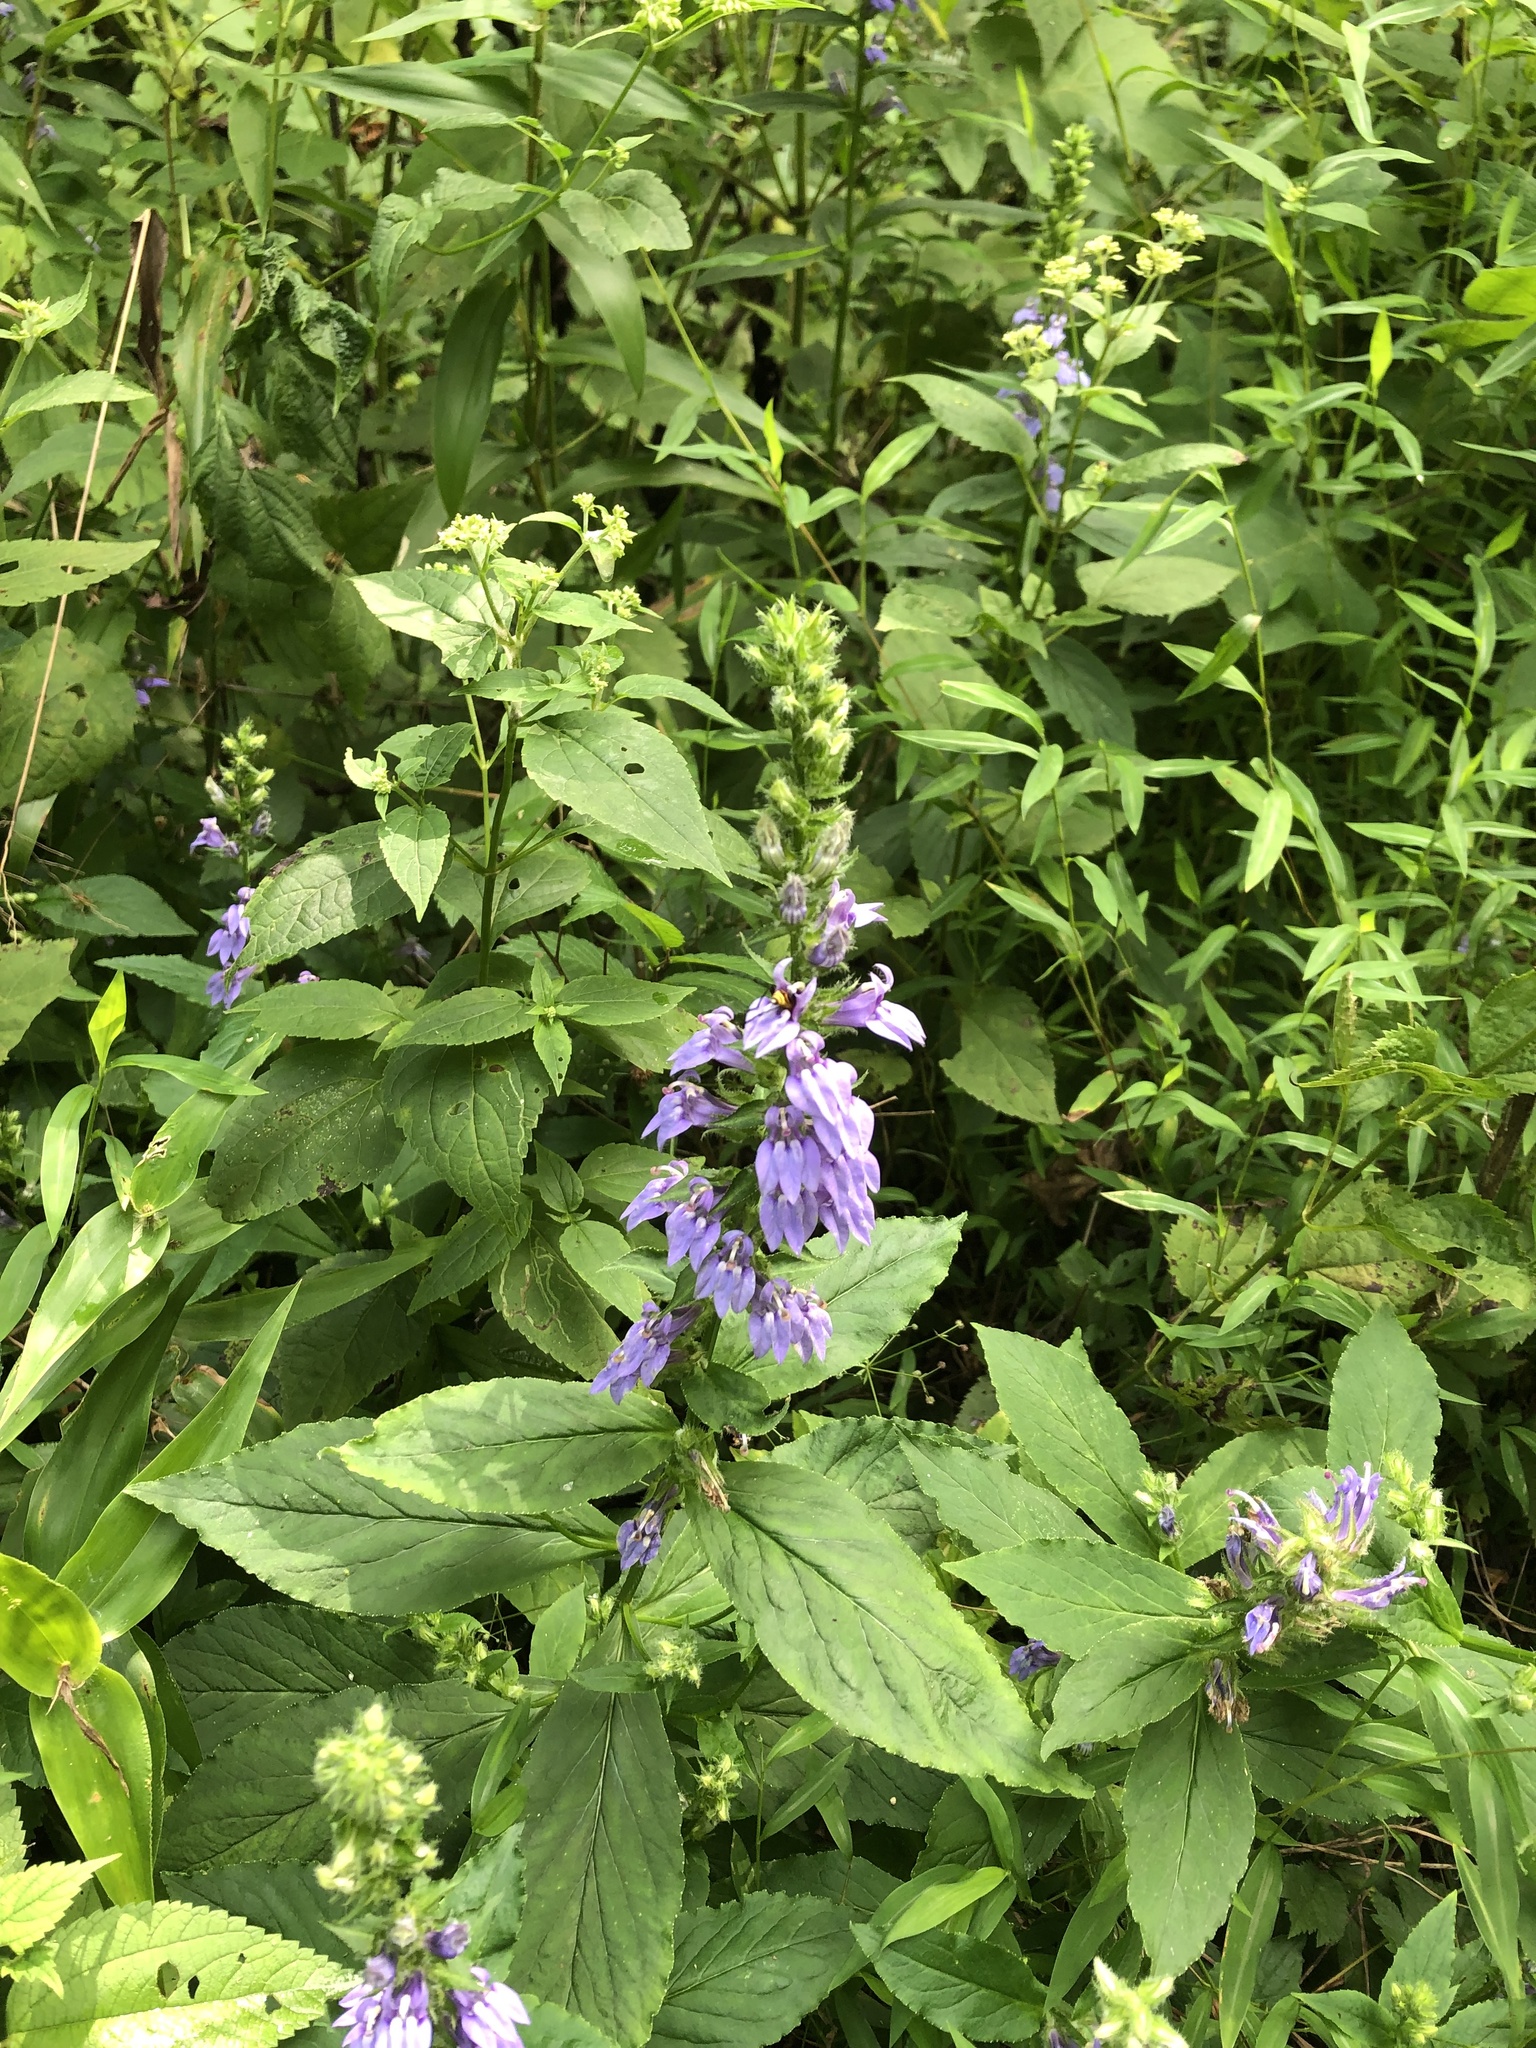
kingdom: Plantae
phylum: Tracheophyta
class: Magnoliopsida
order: Asterales
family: Campanulaceae
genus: Lobelia
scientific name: Lobelia siphilitica
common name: Great lobelia
